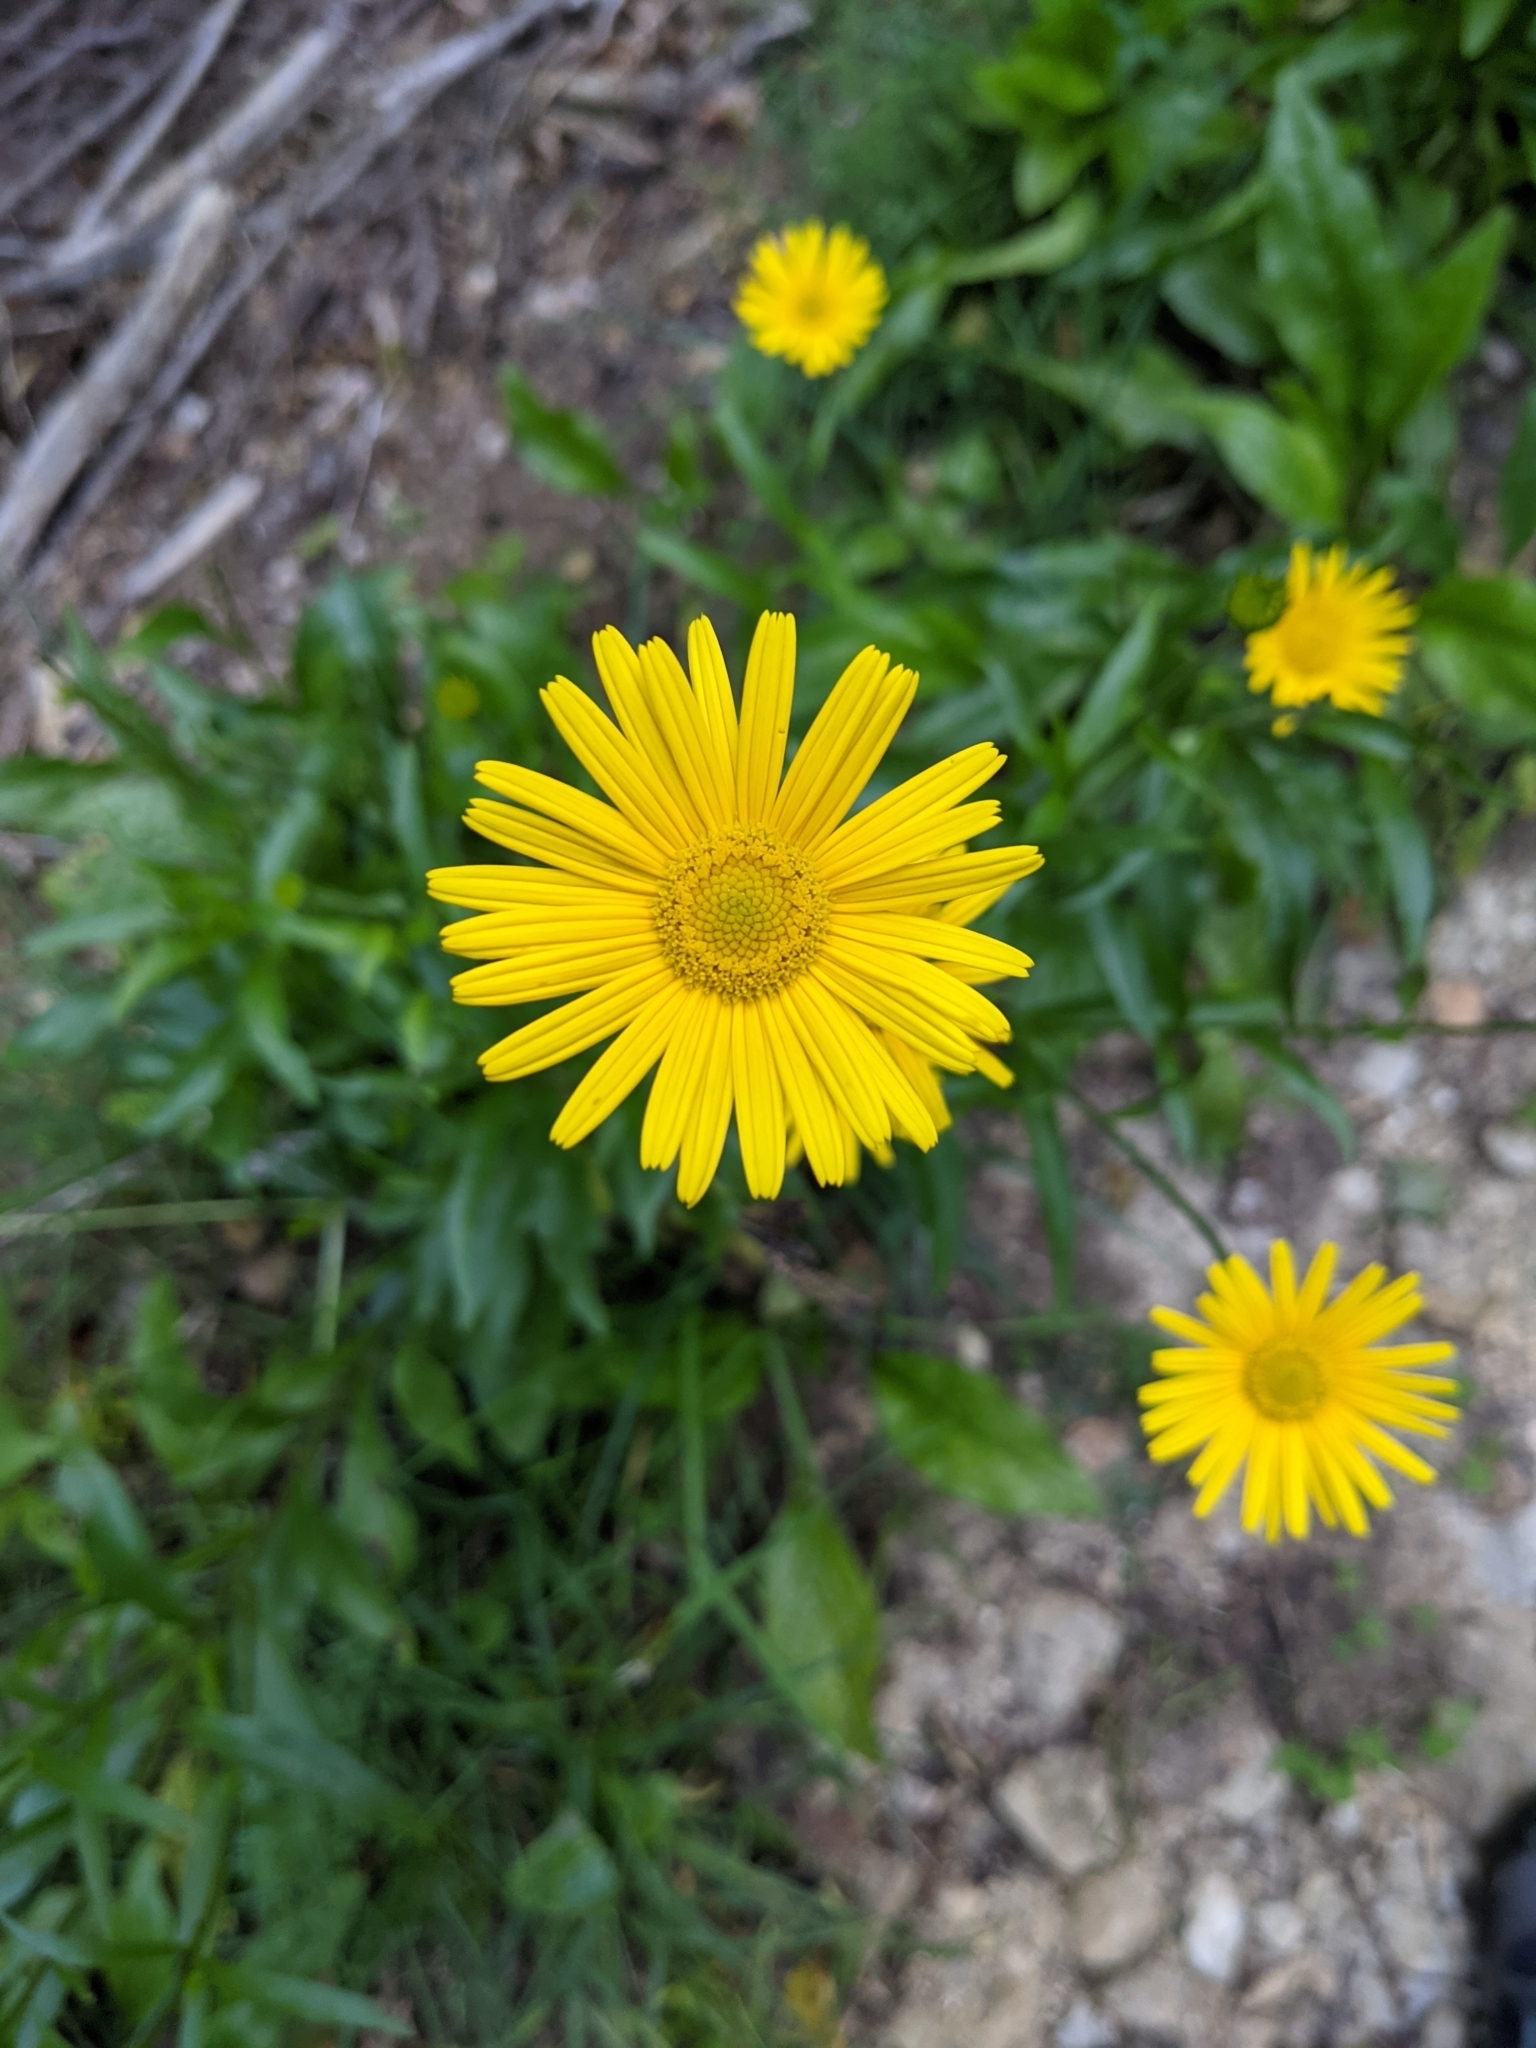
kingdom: Plantae
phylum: Tracheophyta
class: Magnoliopsida
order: Asterales
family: Asteraceae
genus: Buphthalmum
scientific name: Buphthalmum salicifolium
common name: Willow-leaved yellow-oxeye
